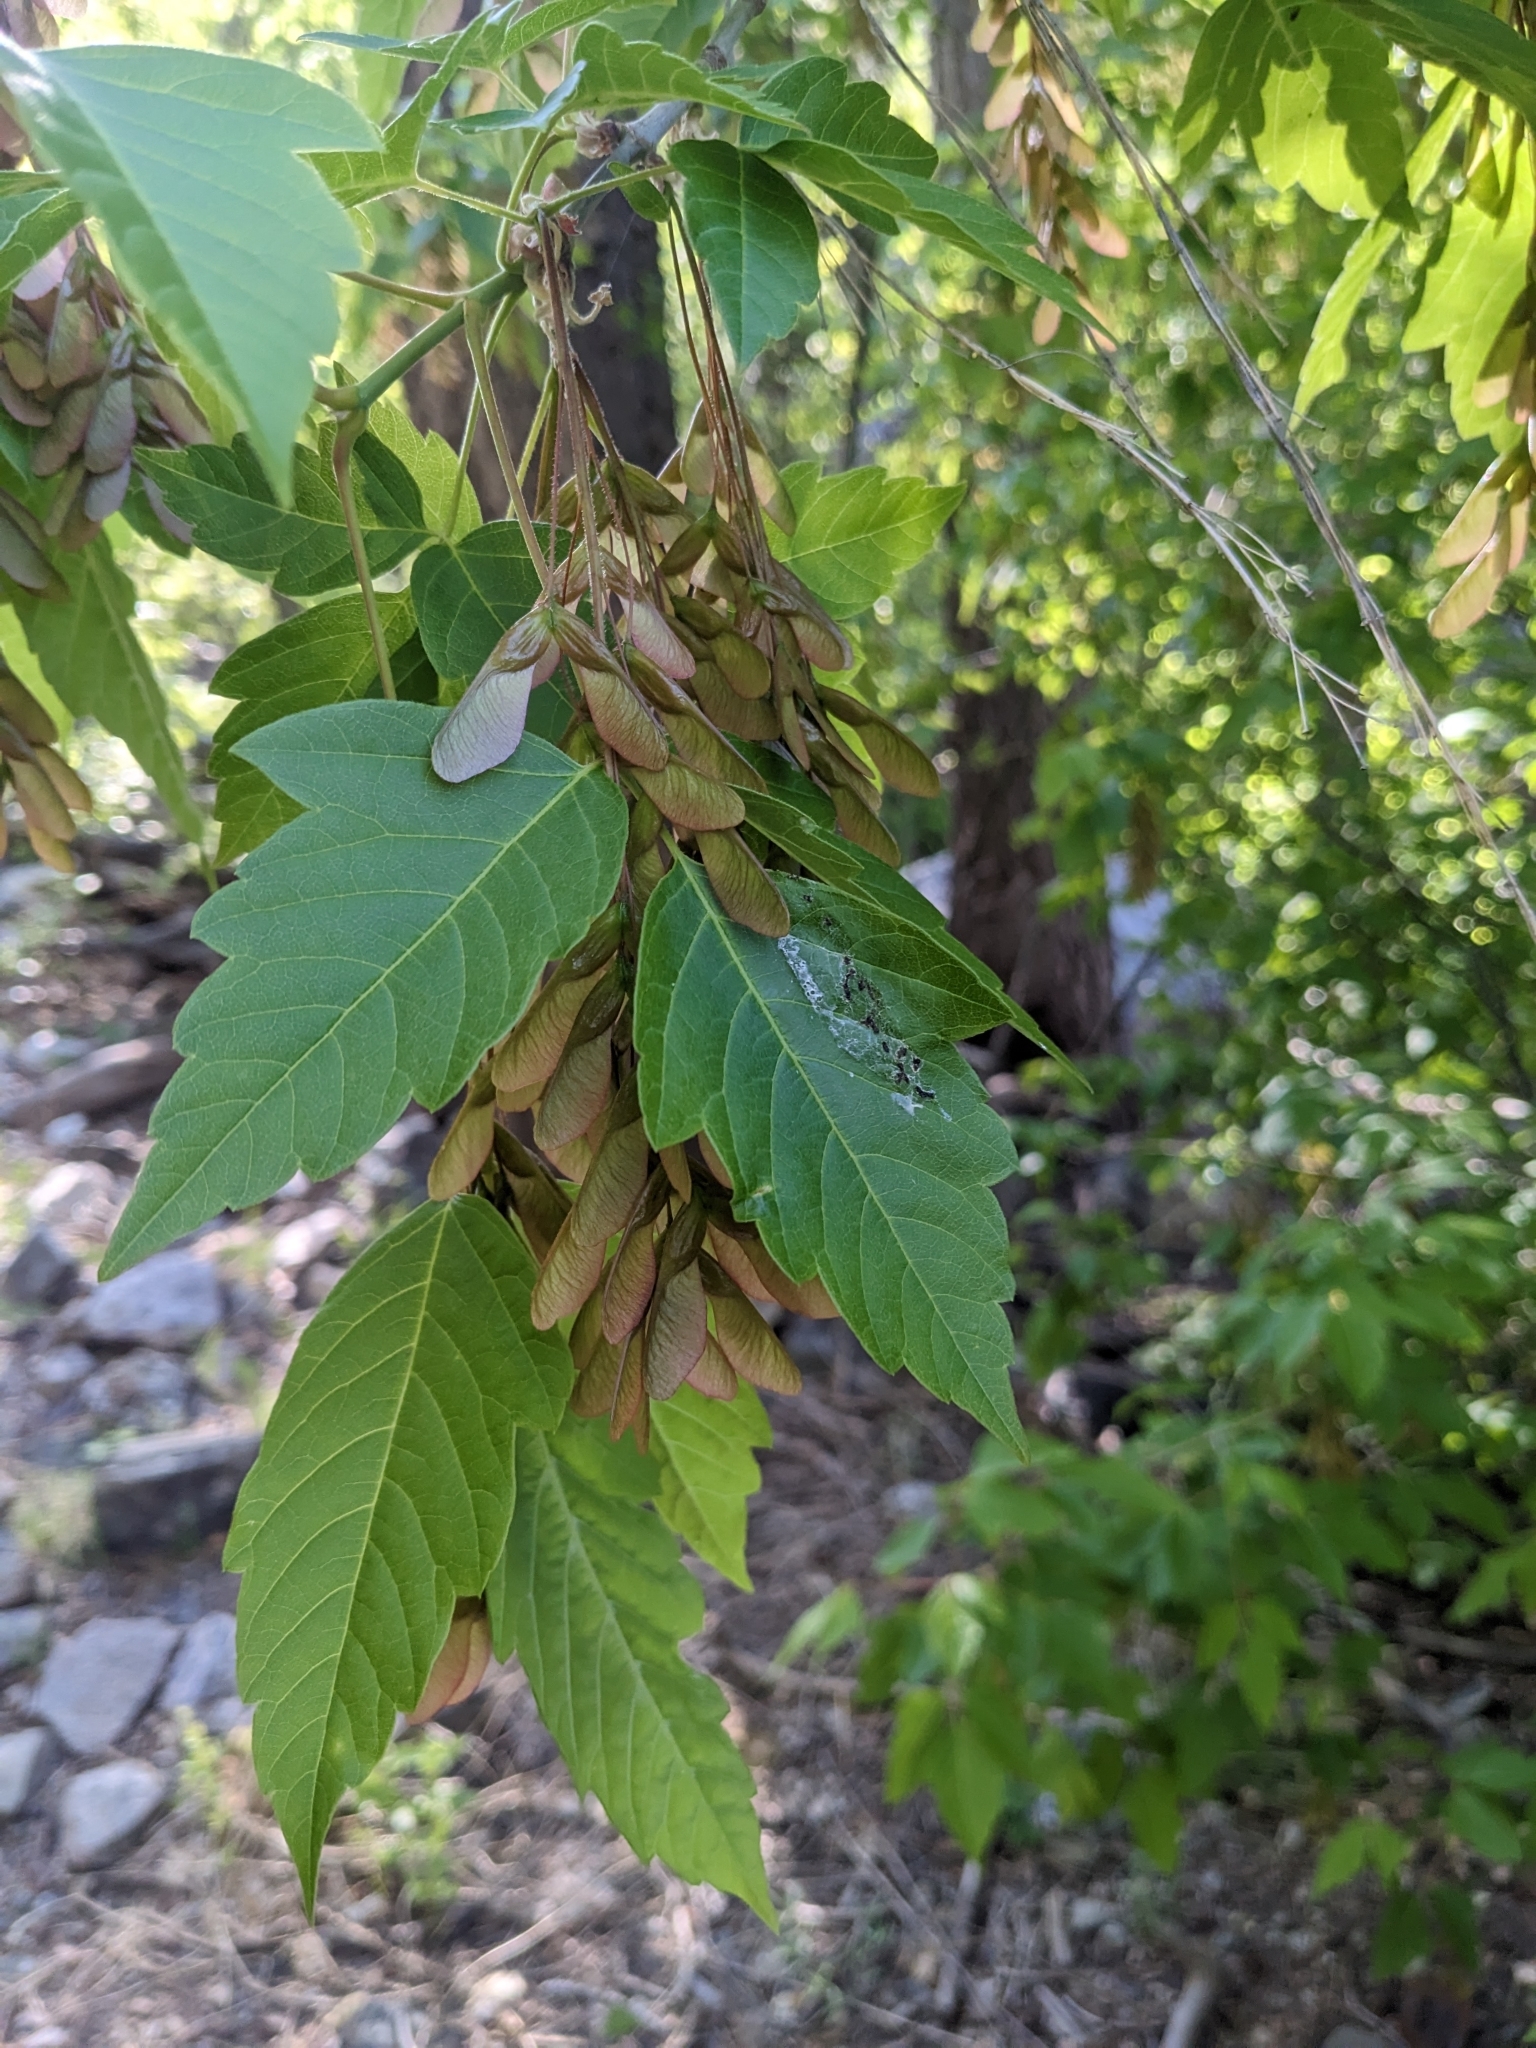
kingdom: Plantae
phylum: Tracheophyta
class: Magnoliopsida
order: Sapindales
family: Sapindaceae
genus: Acer
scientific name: Acer negundo
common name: Ashleaf maple
